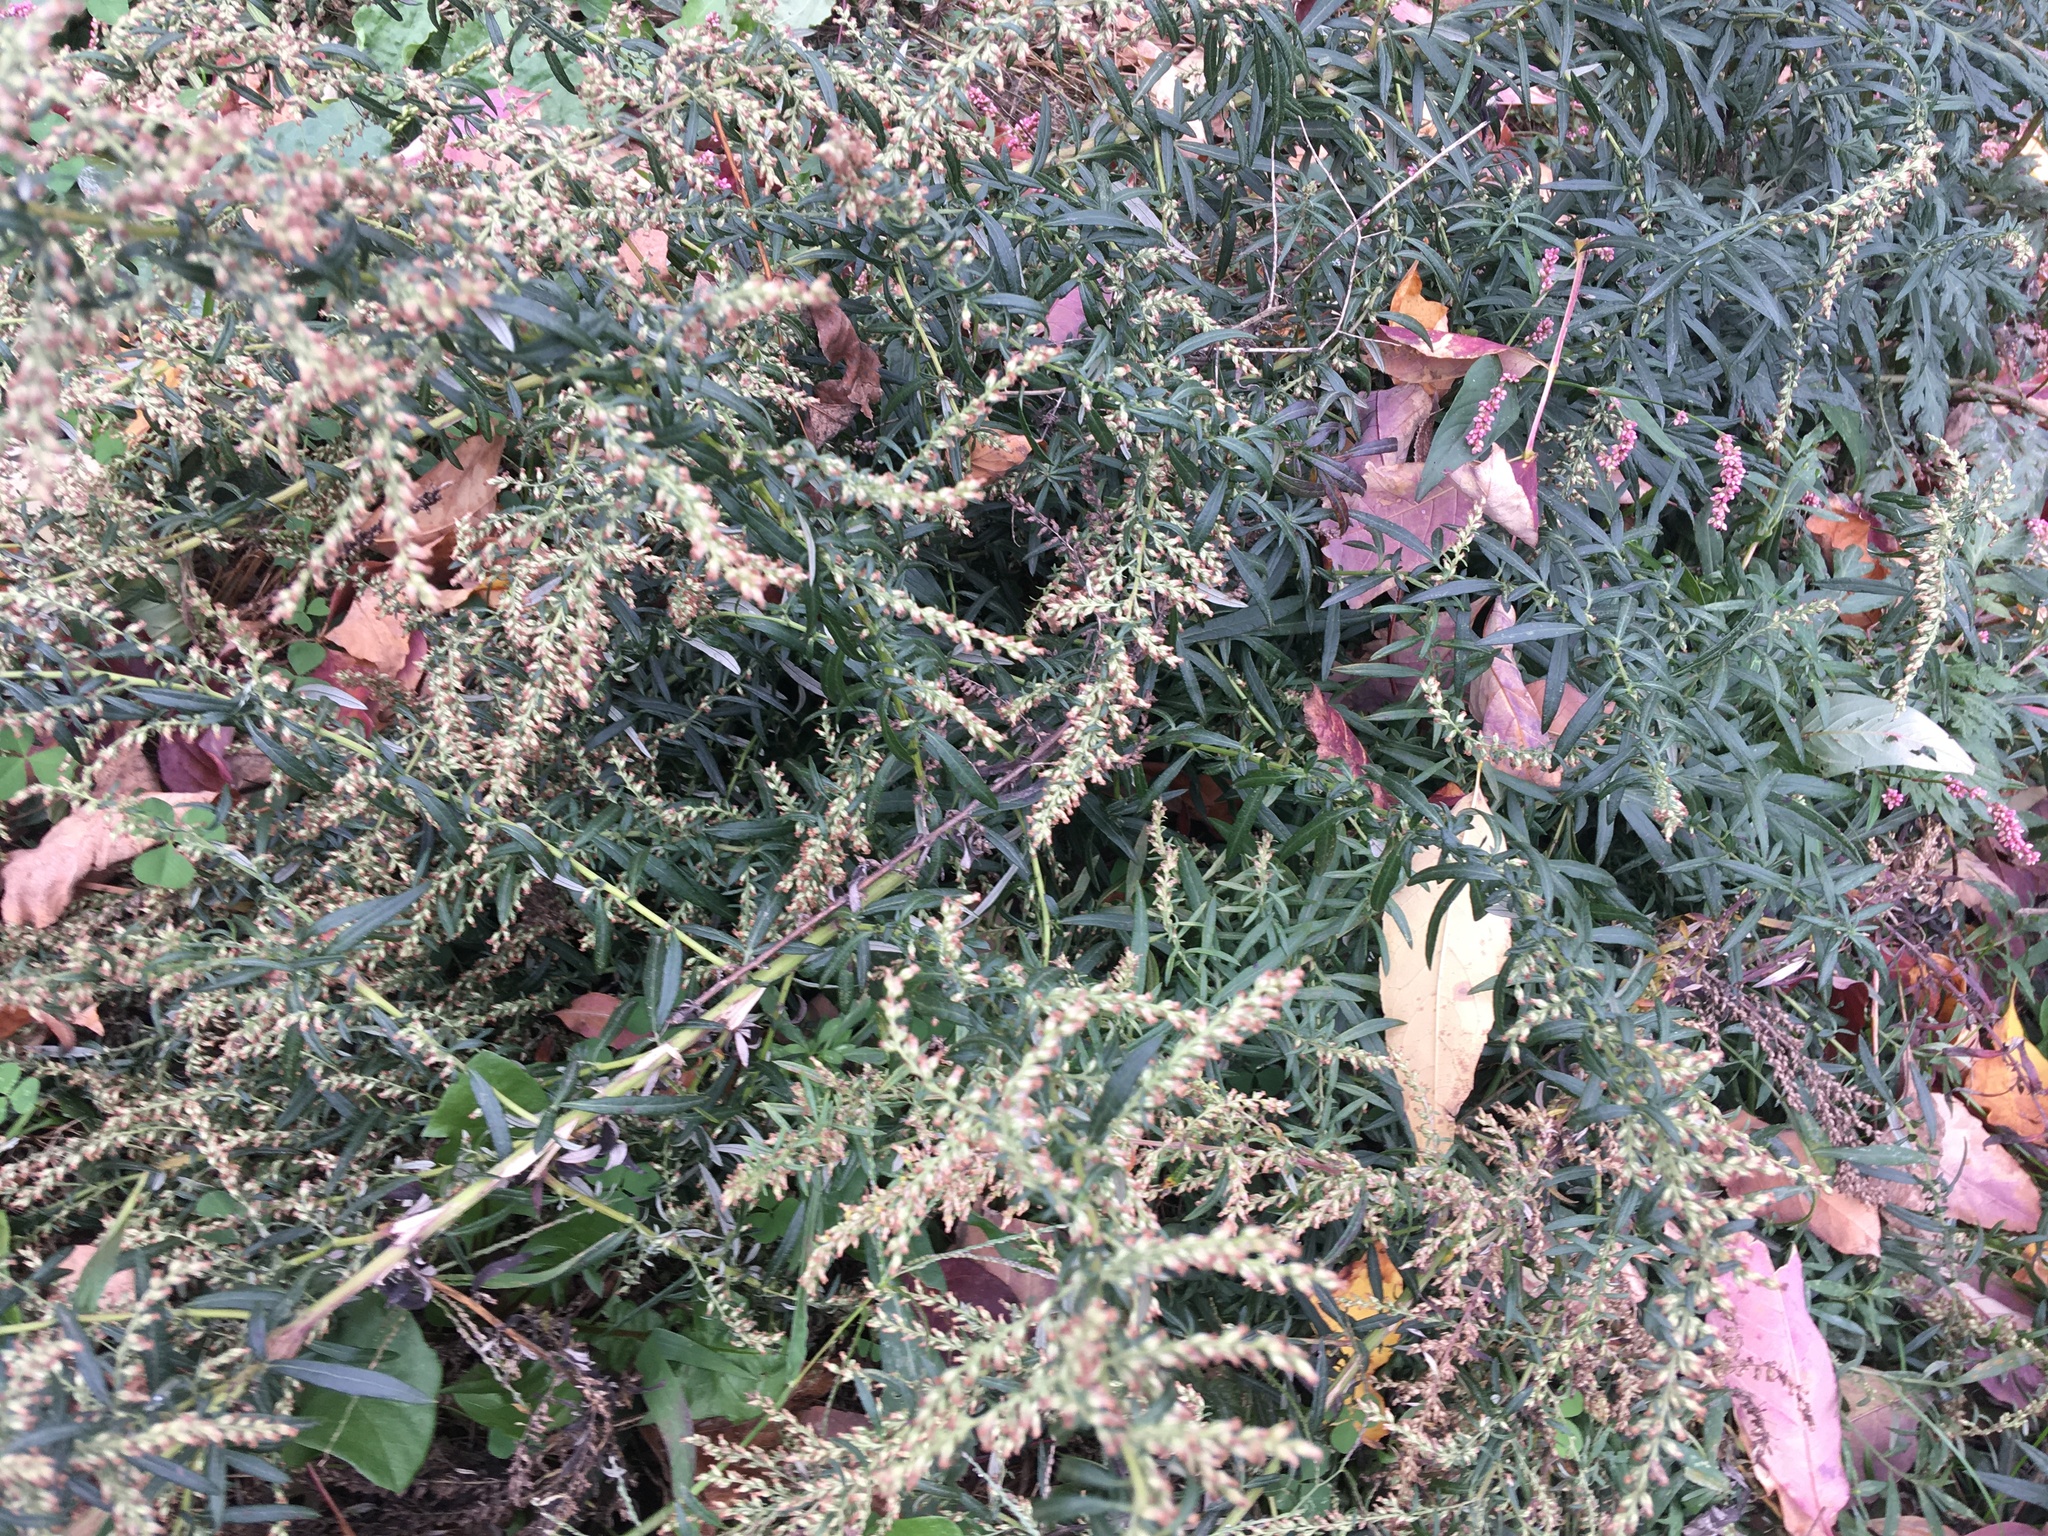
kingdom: Plantae
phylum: Tracheophyta
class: Magnoliopsida
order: Asterales
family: Asteraceae
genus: Artemisia
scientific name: Artemisia vulgaris
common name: Mugwort
